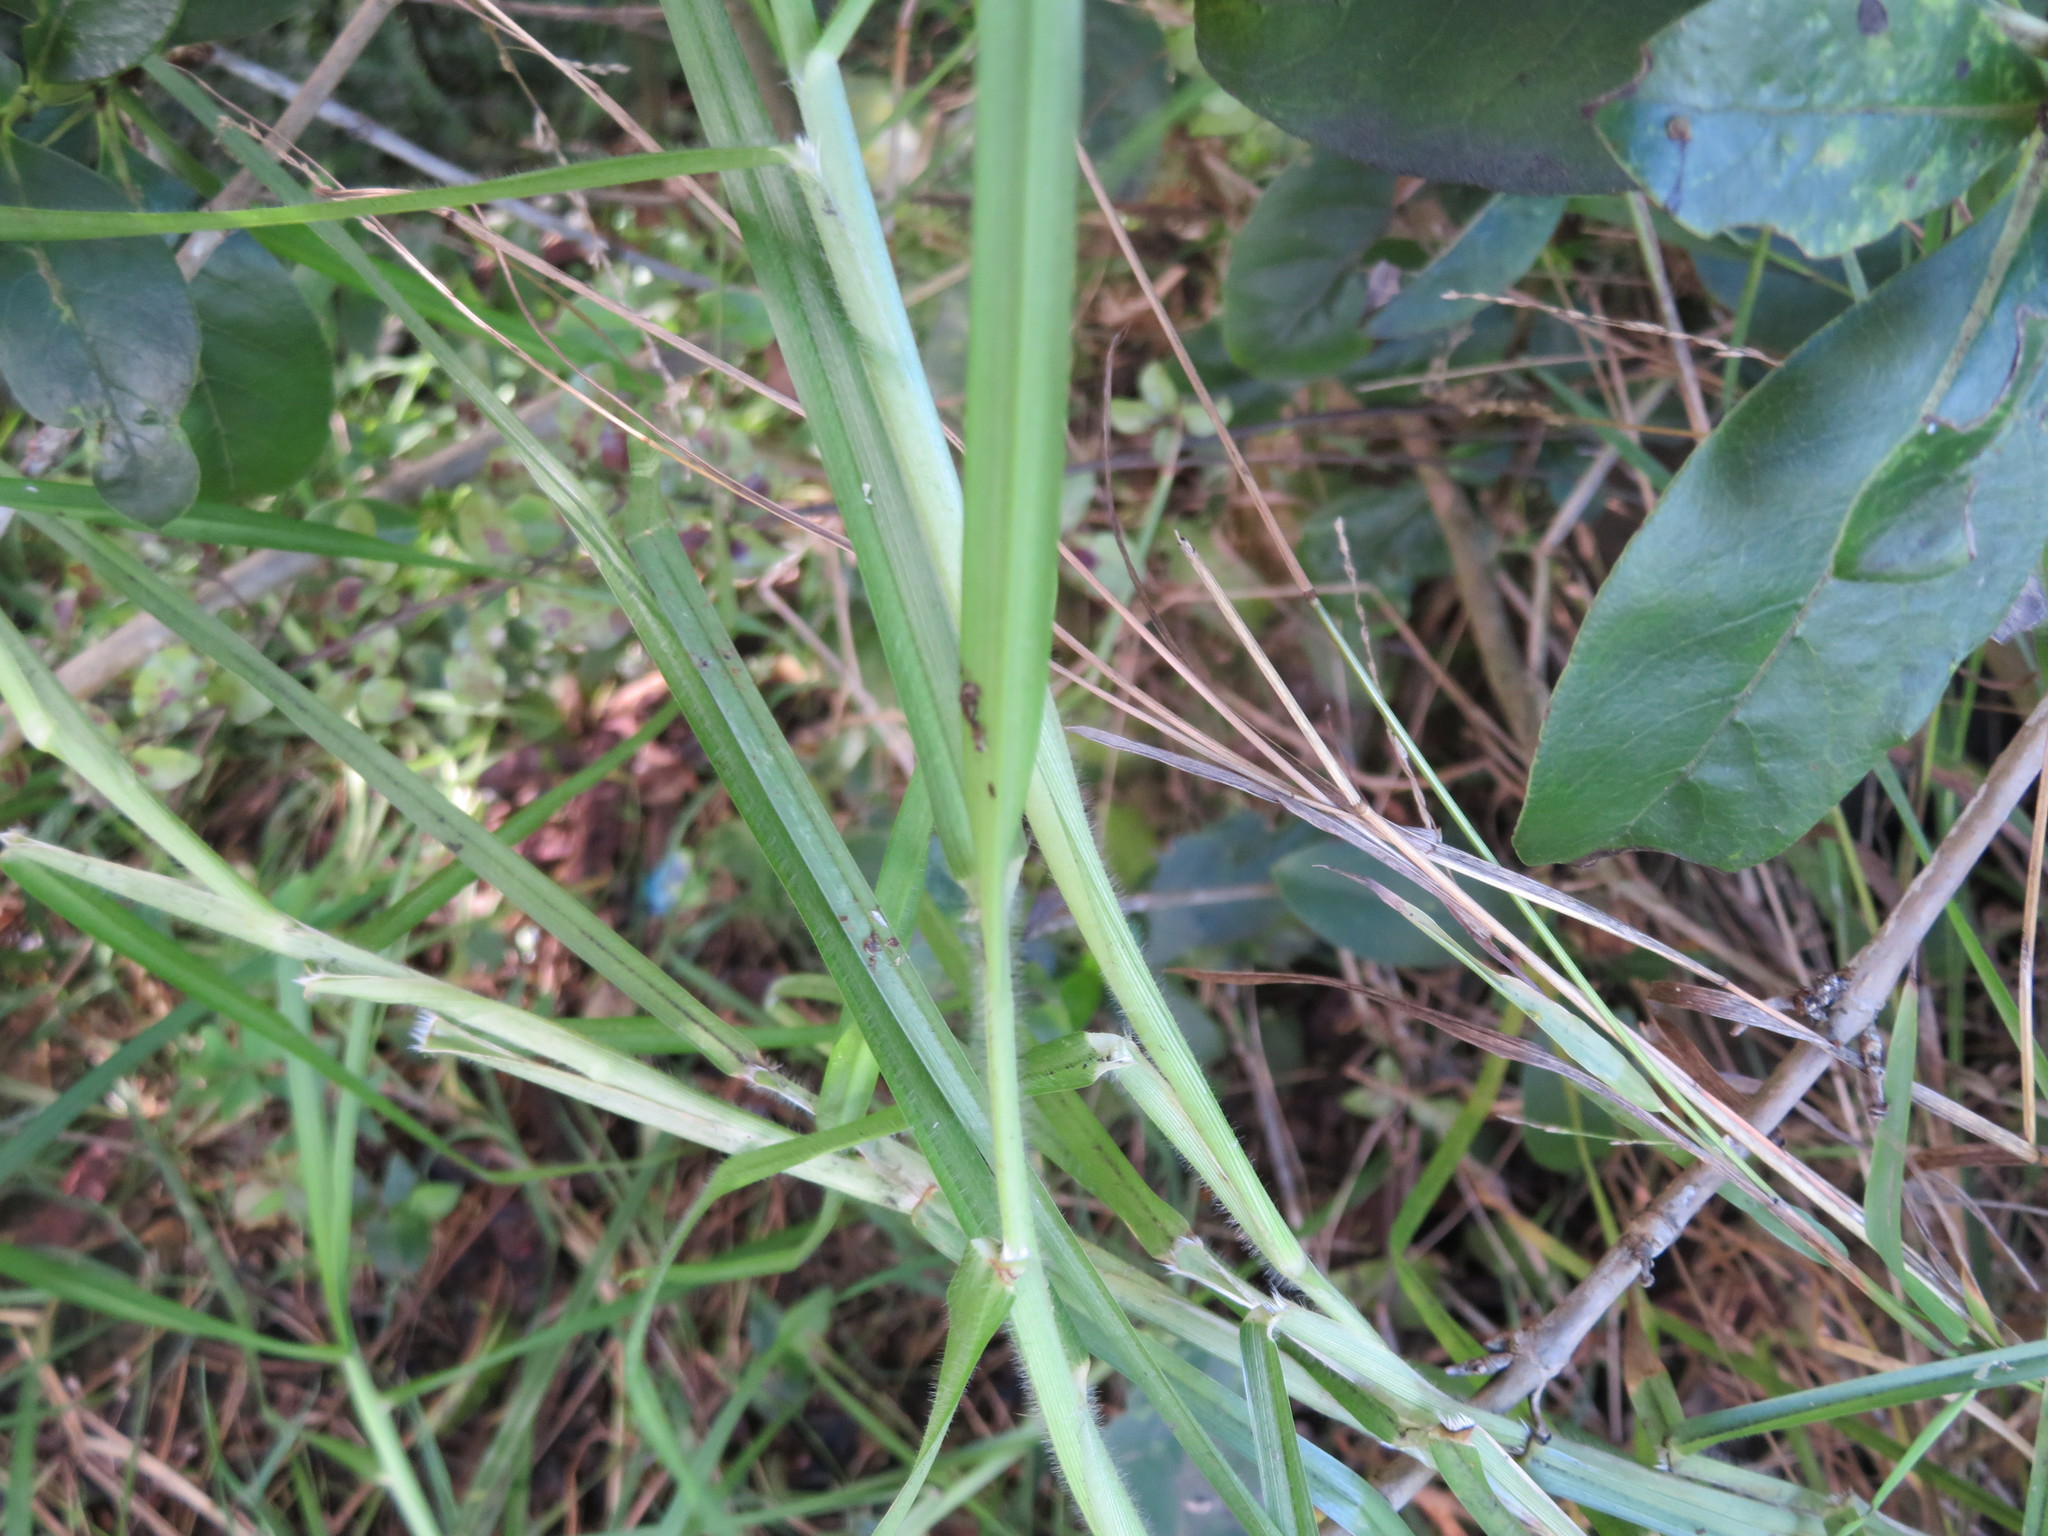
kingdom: Plantae
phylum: Tracheophyta
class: Liliopsida
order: Poales
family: Poaceae
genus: Cenchrus
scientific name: Cenchrus clandestinus
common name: Kikuyugrass
